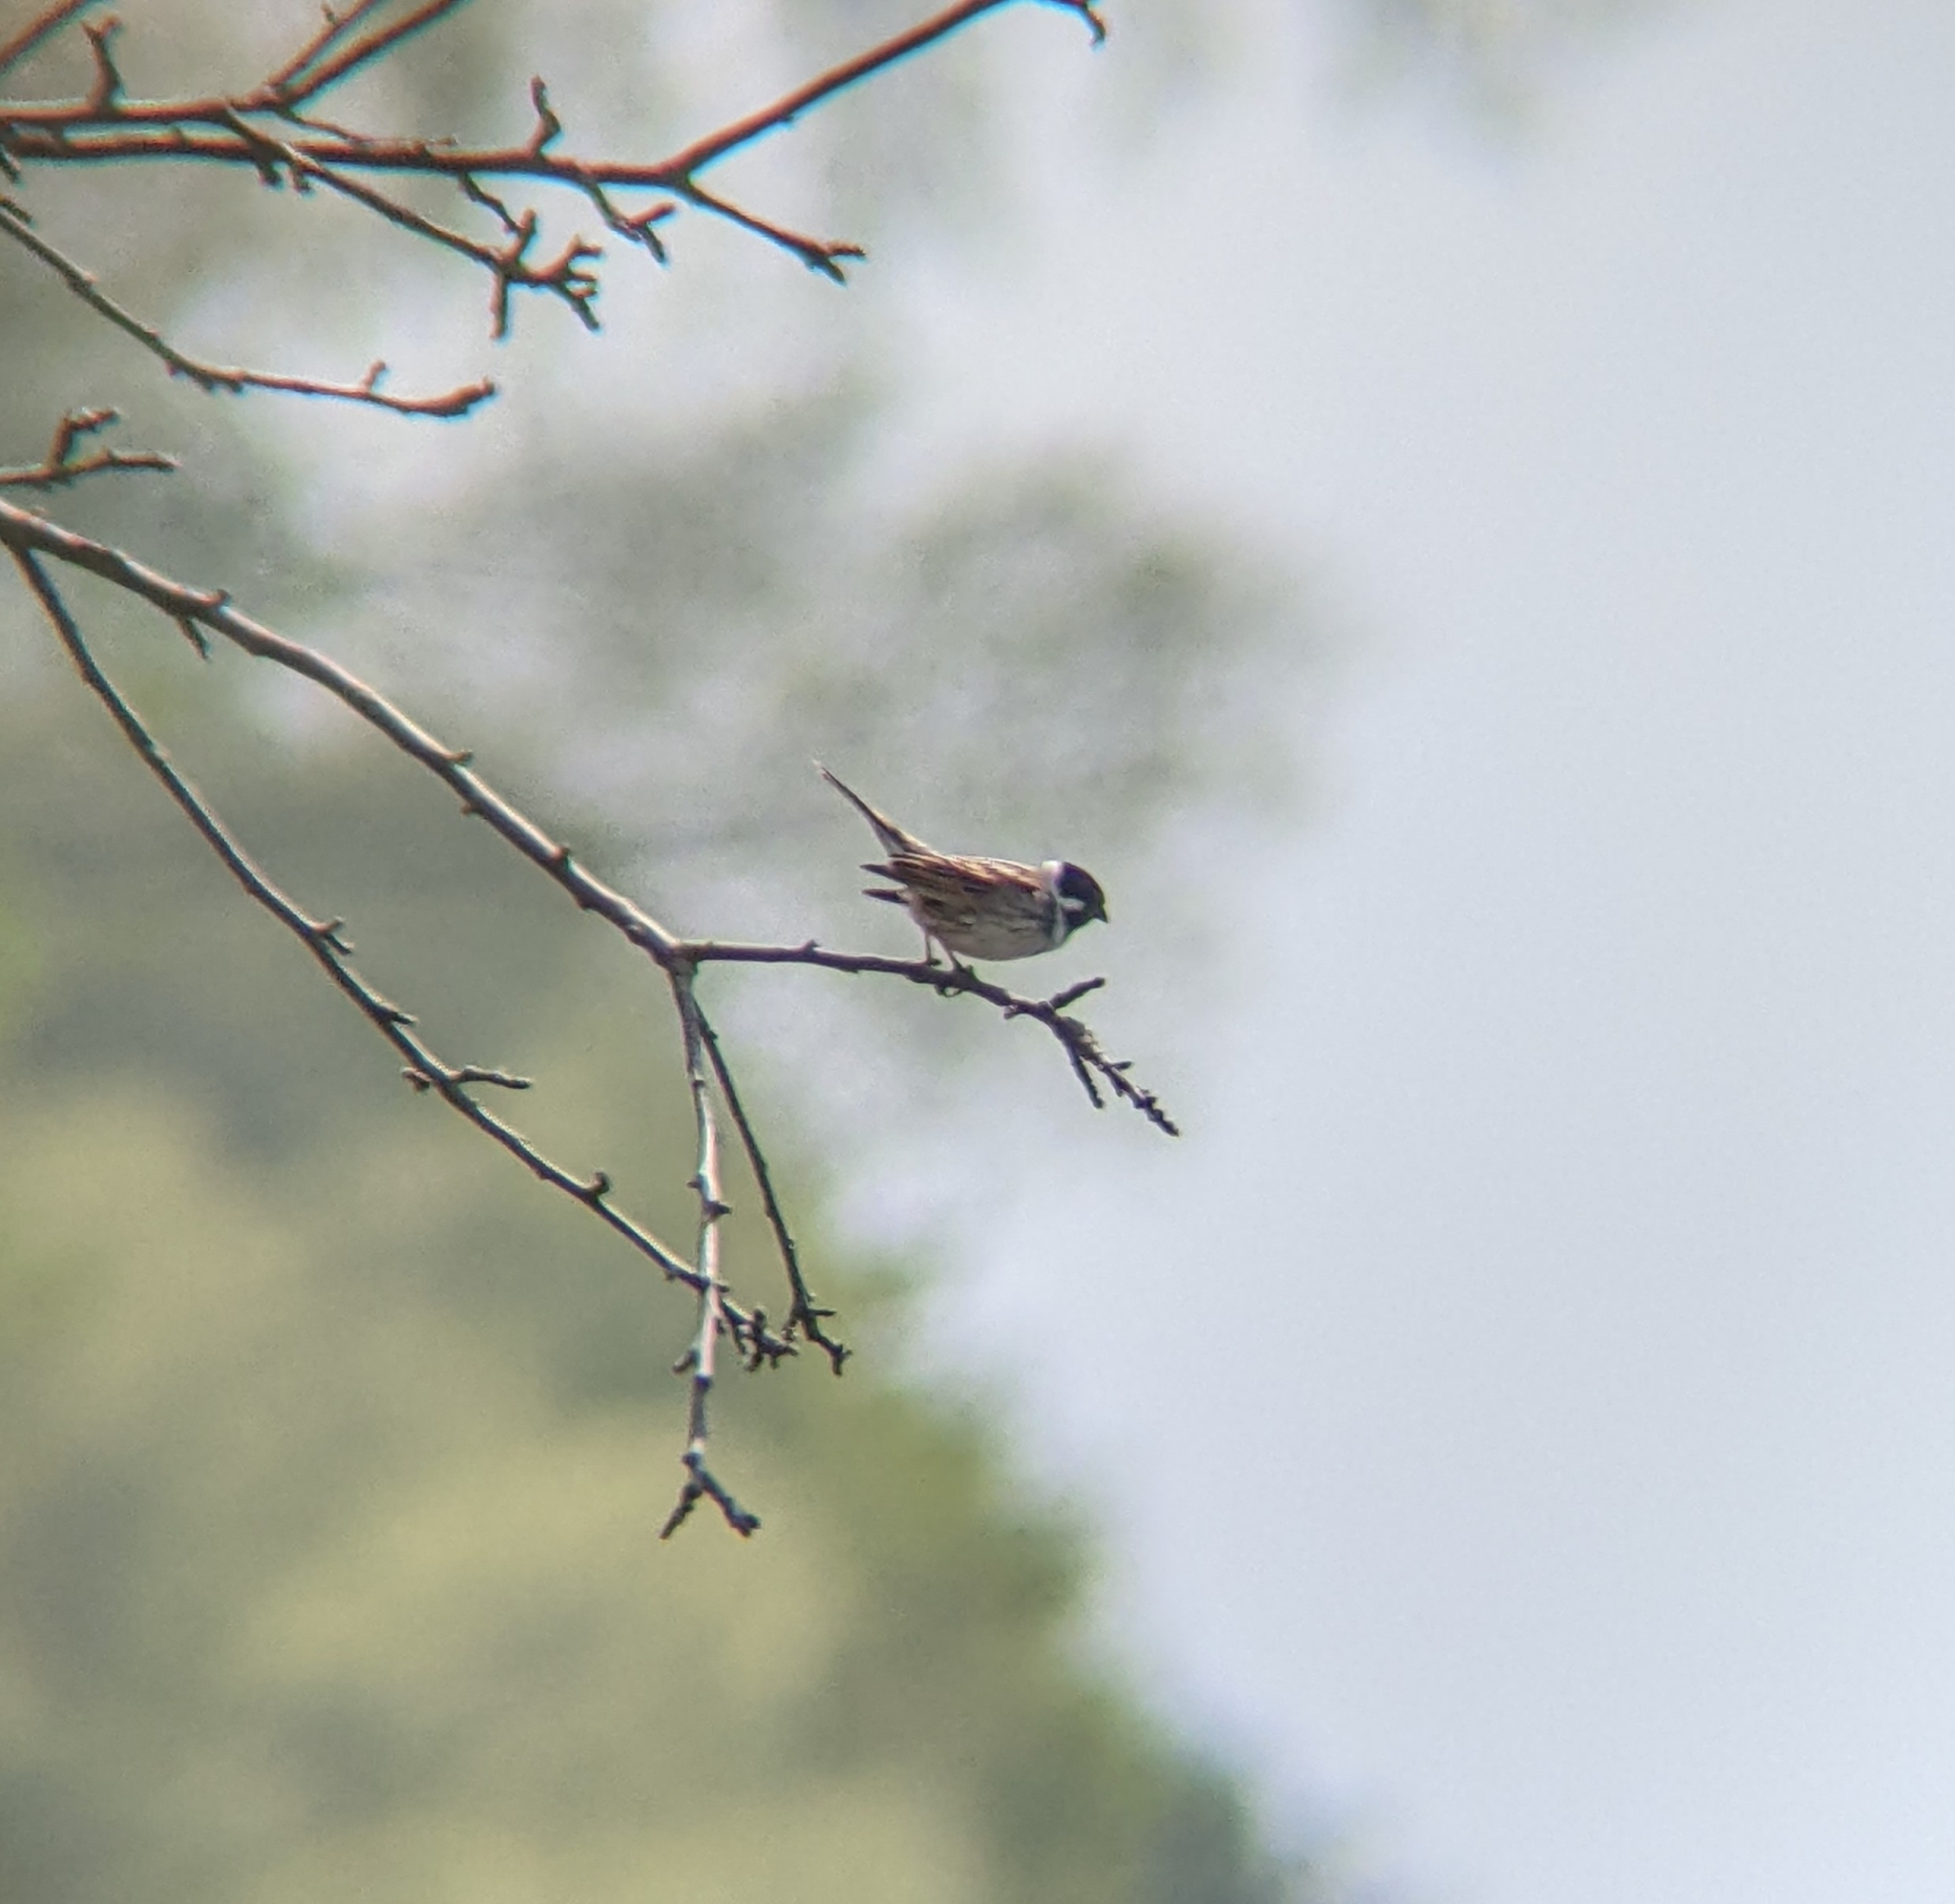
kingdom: Animalia
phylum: Chordata
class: Aves
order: Passeriformes
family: Emberizidae
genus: Emberiza
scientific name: Emberiza schoeniclus
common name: Reed bunting
